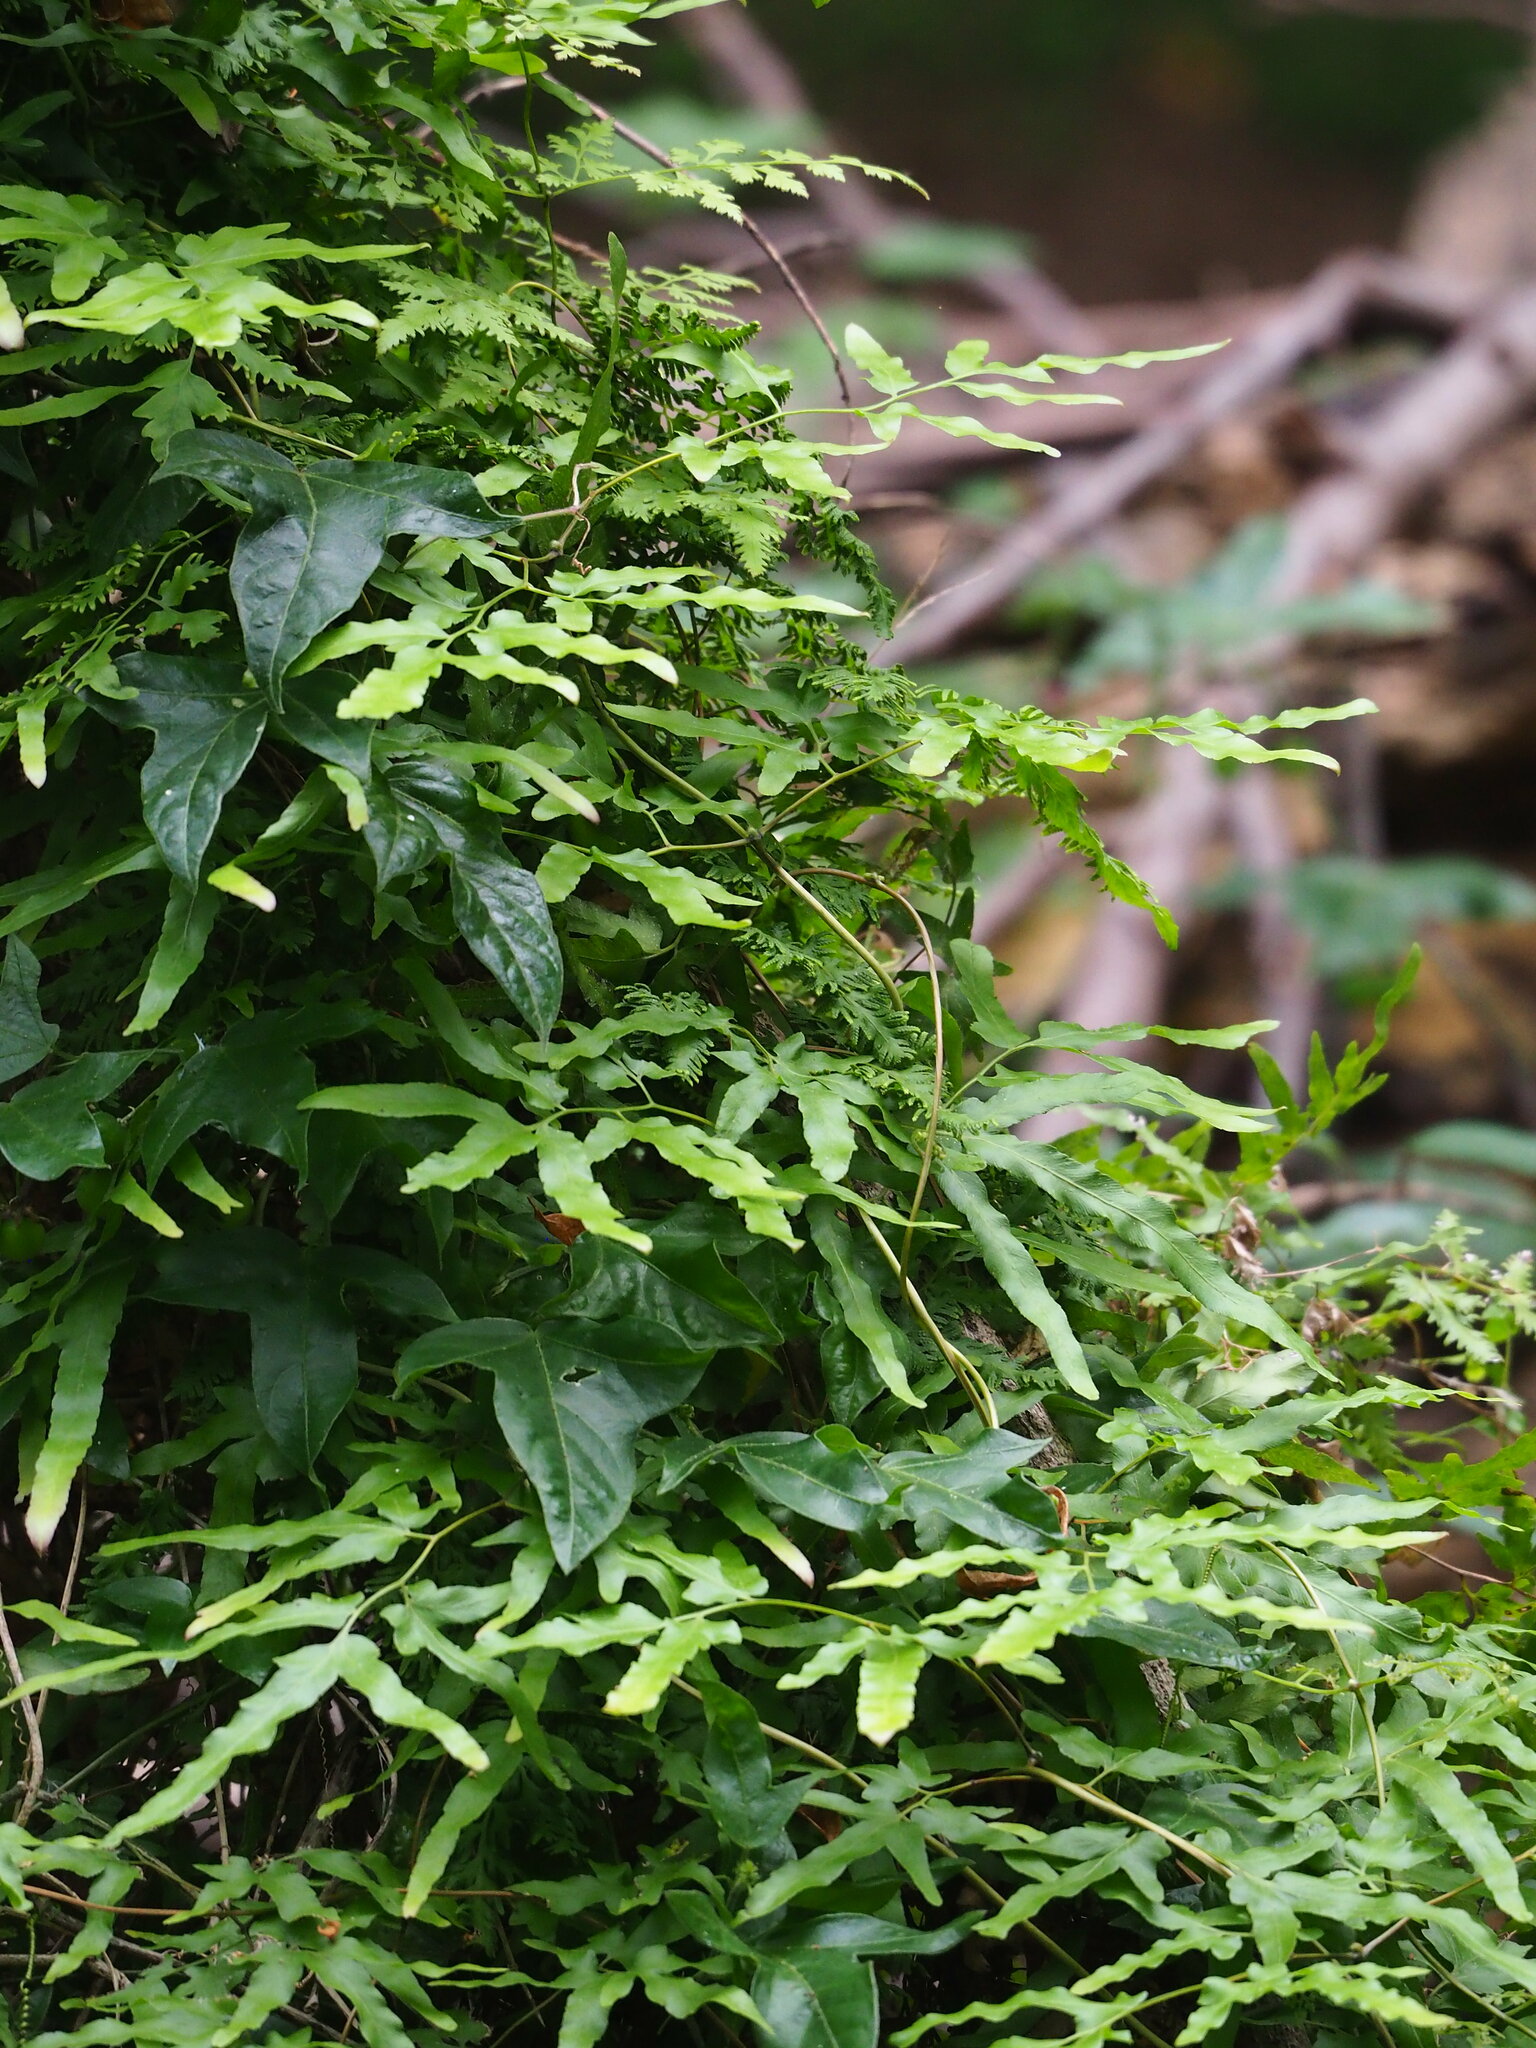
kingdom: Plantae
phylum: Tracheophyta
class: Polypodiopsida
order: Schizaeales
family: Lygodiaceae
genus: Lygodium
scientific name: Lygodium japonicum
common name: Japanese climbing fern
